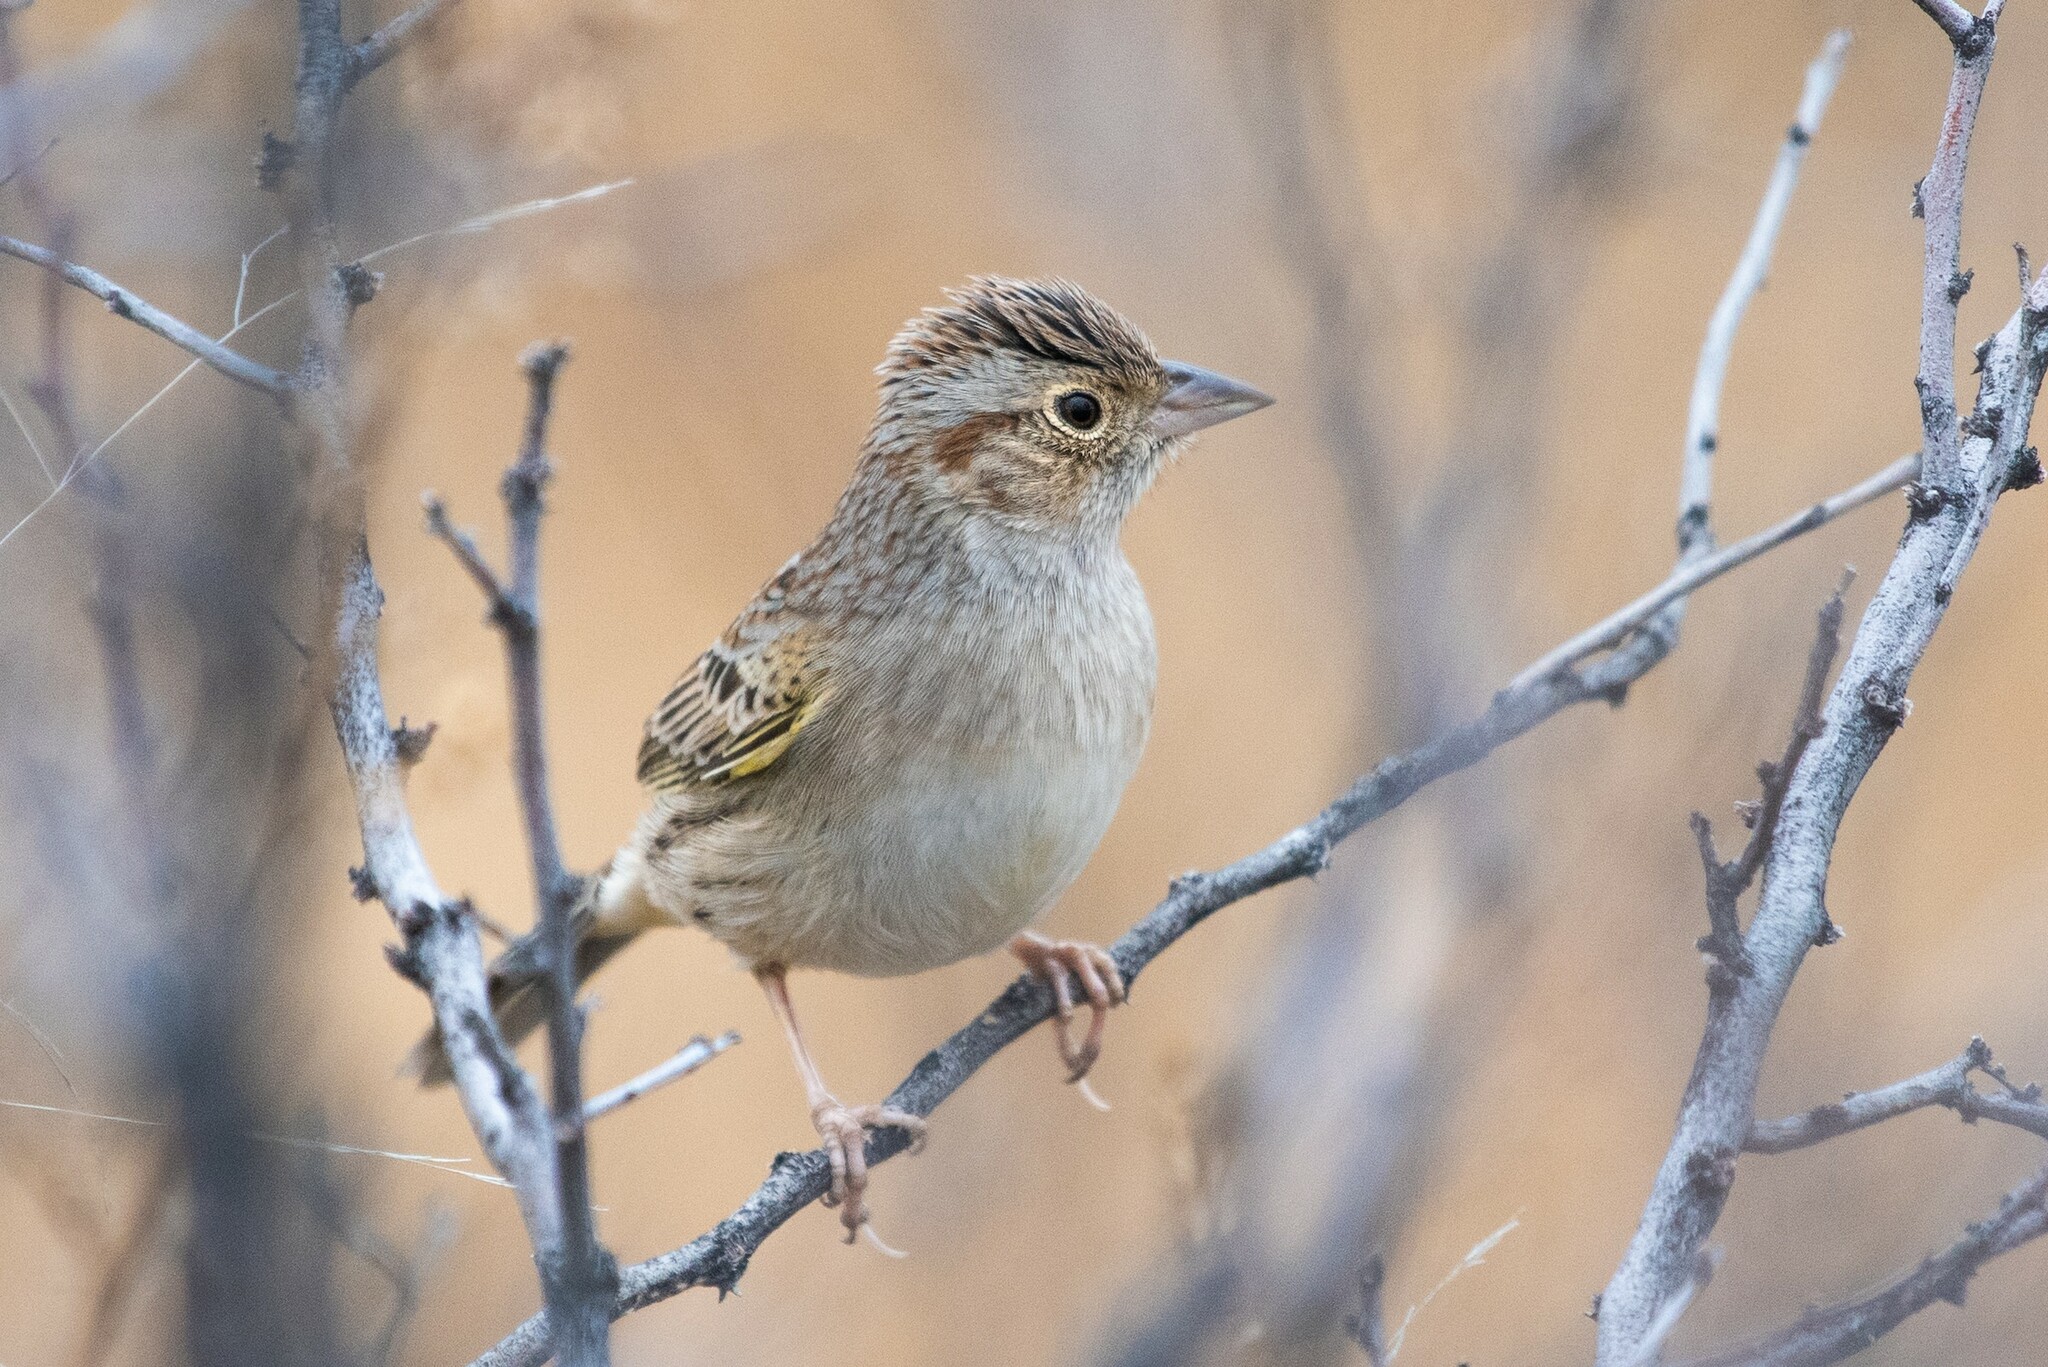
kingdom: Animalia
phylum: Chordata
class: Aves
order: Passeriformes
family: Passerellidae
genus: Peucaea
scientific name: Peucaea cassinii
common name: Cassin's sparrow
